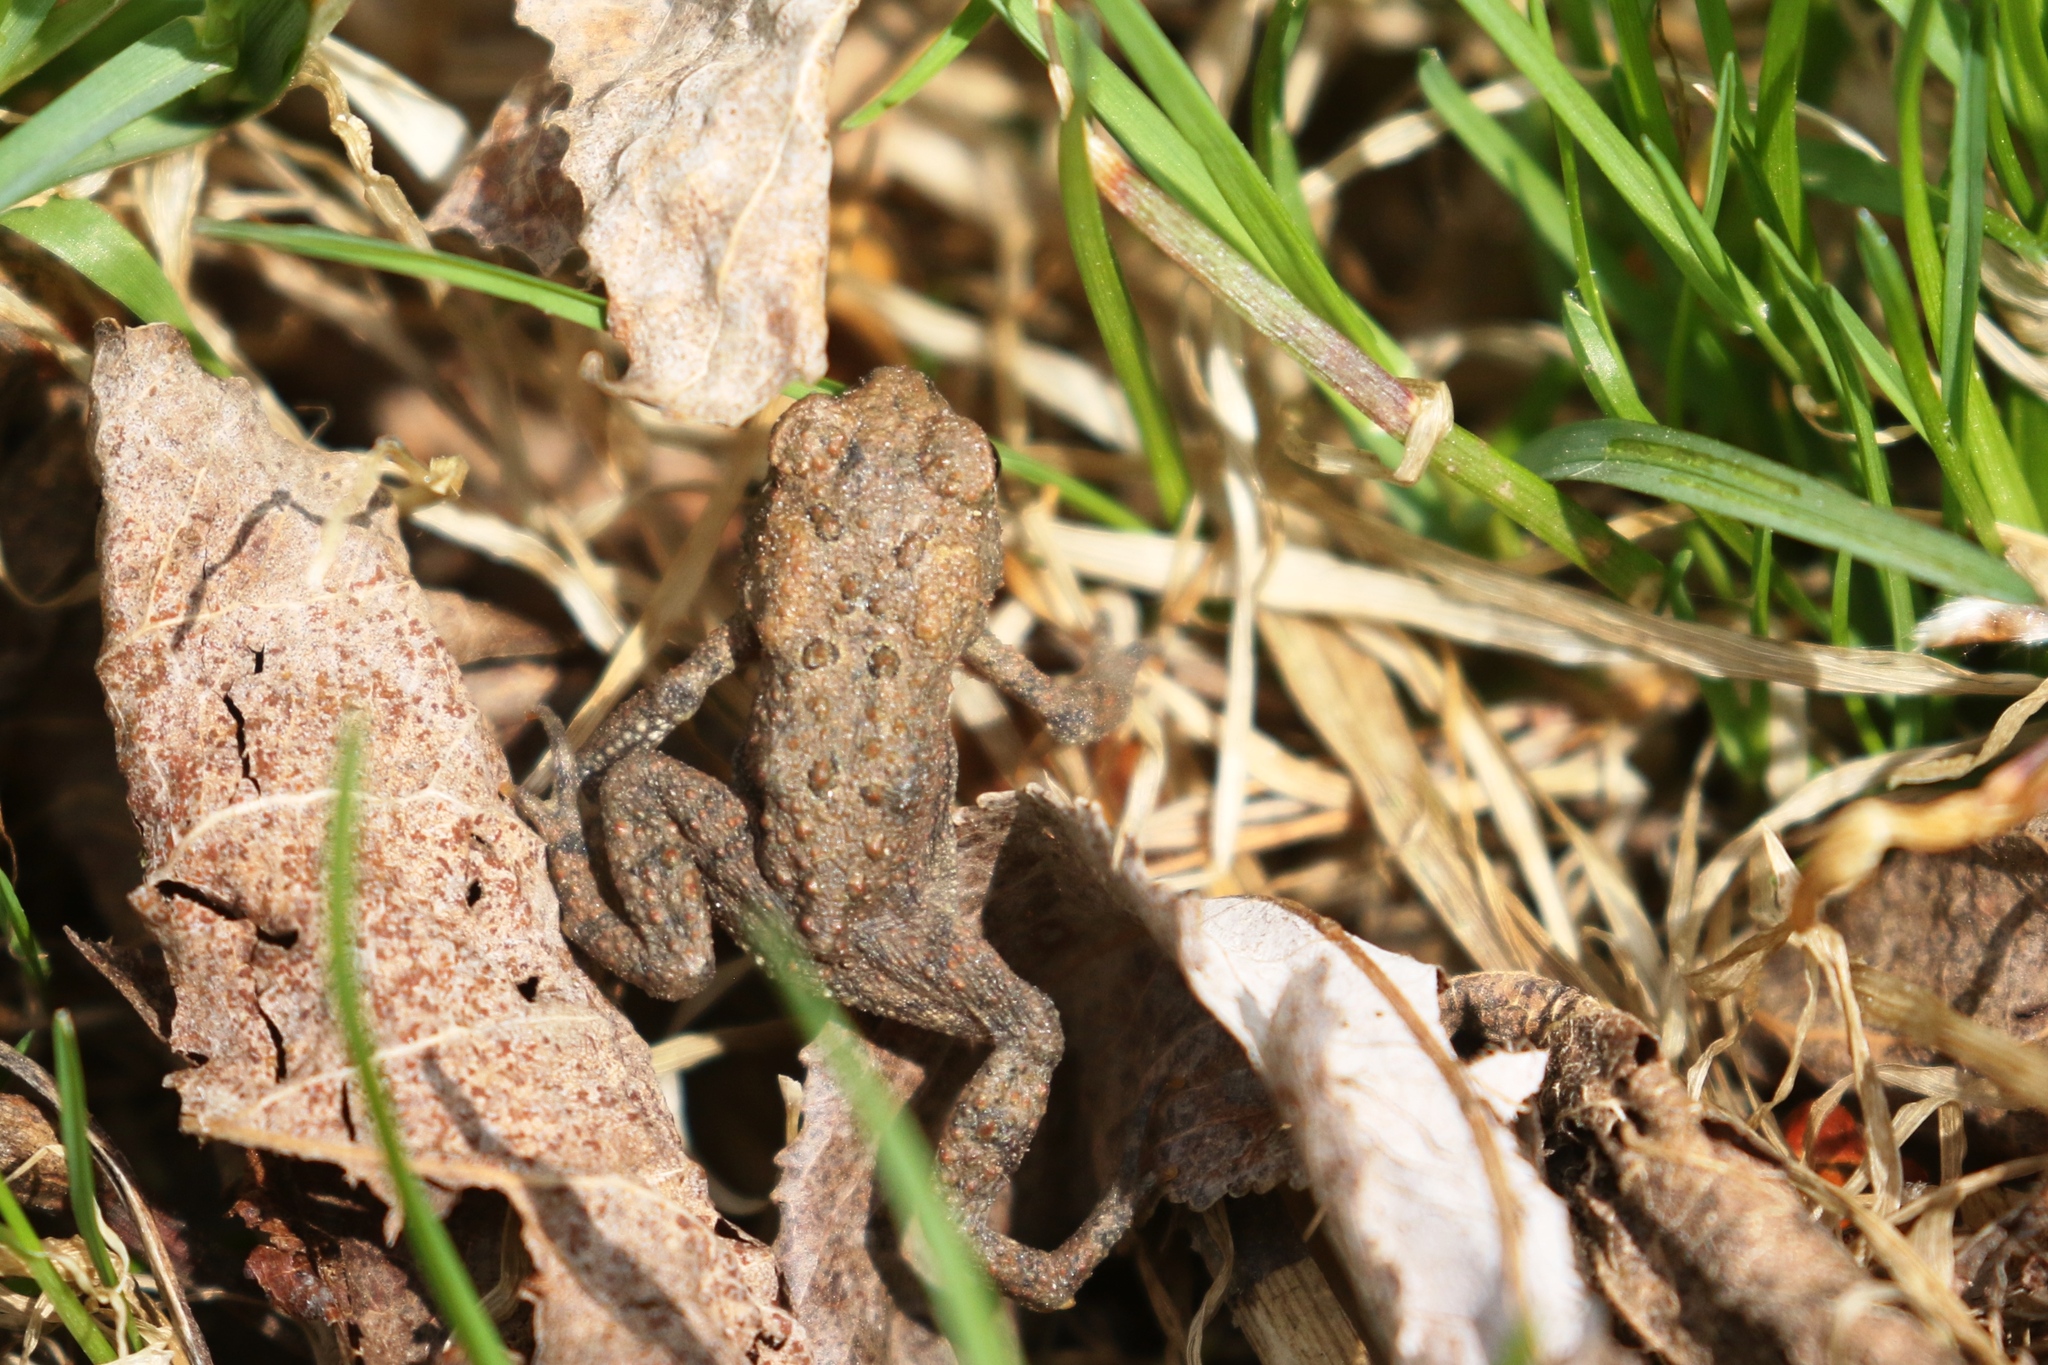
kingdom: Animalia
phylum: Chordata
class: Amphibia
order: Anura
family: Bufonidae
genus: Anaxyrus
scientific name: Anaxyrus americanus
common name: American toad
